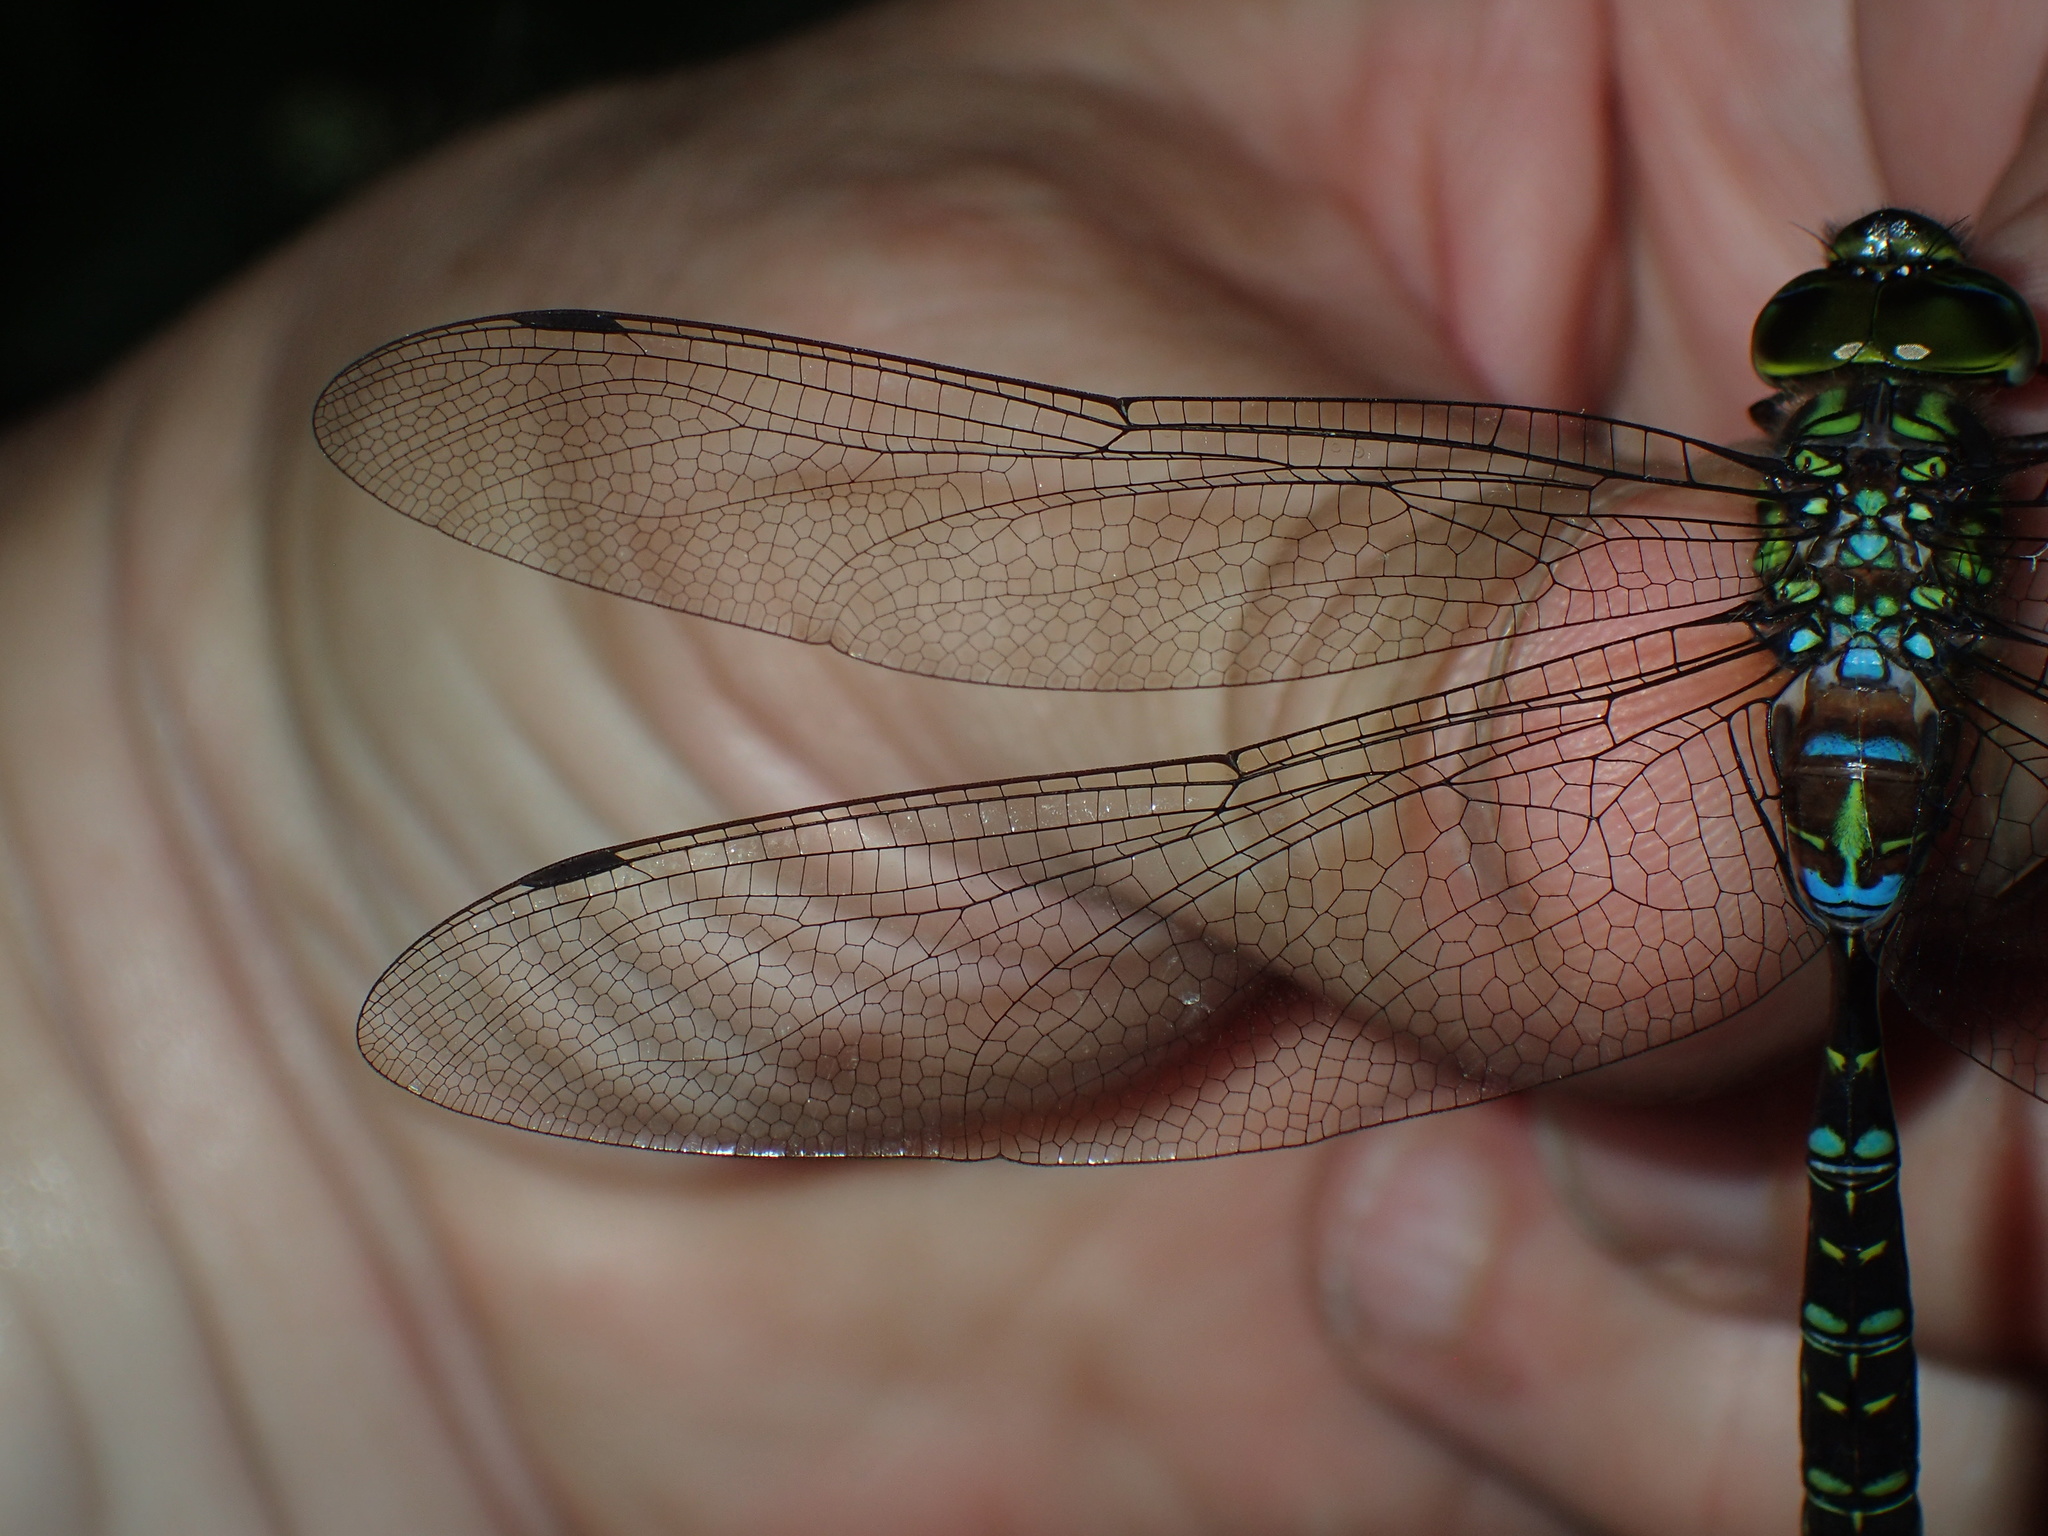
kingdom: Animalia
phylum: Arthropoda
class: Insecta
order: Odonata
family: Aeshnidae
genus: Aeshna
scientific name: Aeshna umbrosa
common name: Shadow darner
